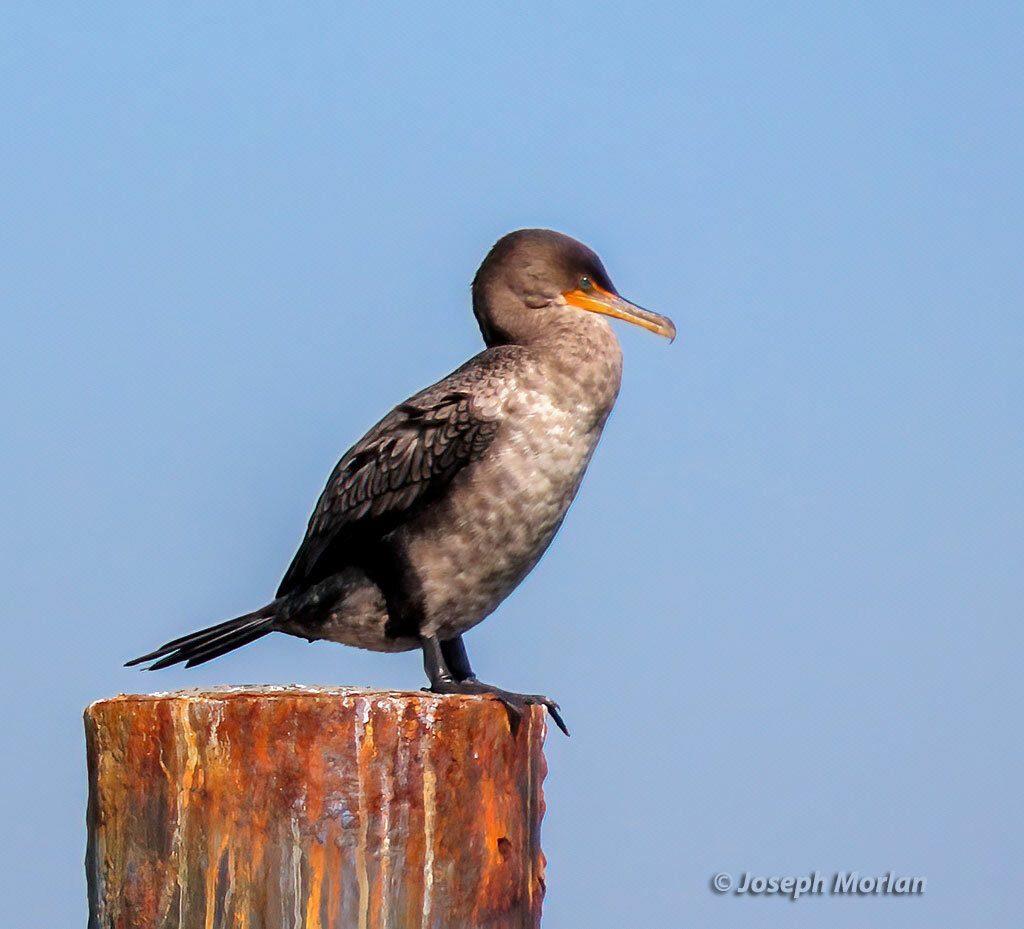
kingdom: Animalia
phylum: Chordata
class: Aves
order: Suliformes
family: Phalacrocoracidae
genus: Phalacrocorax
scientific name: Phalacrocorax auritus
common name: Double-crested cormorant
